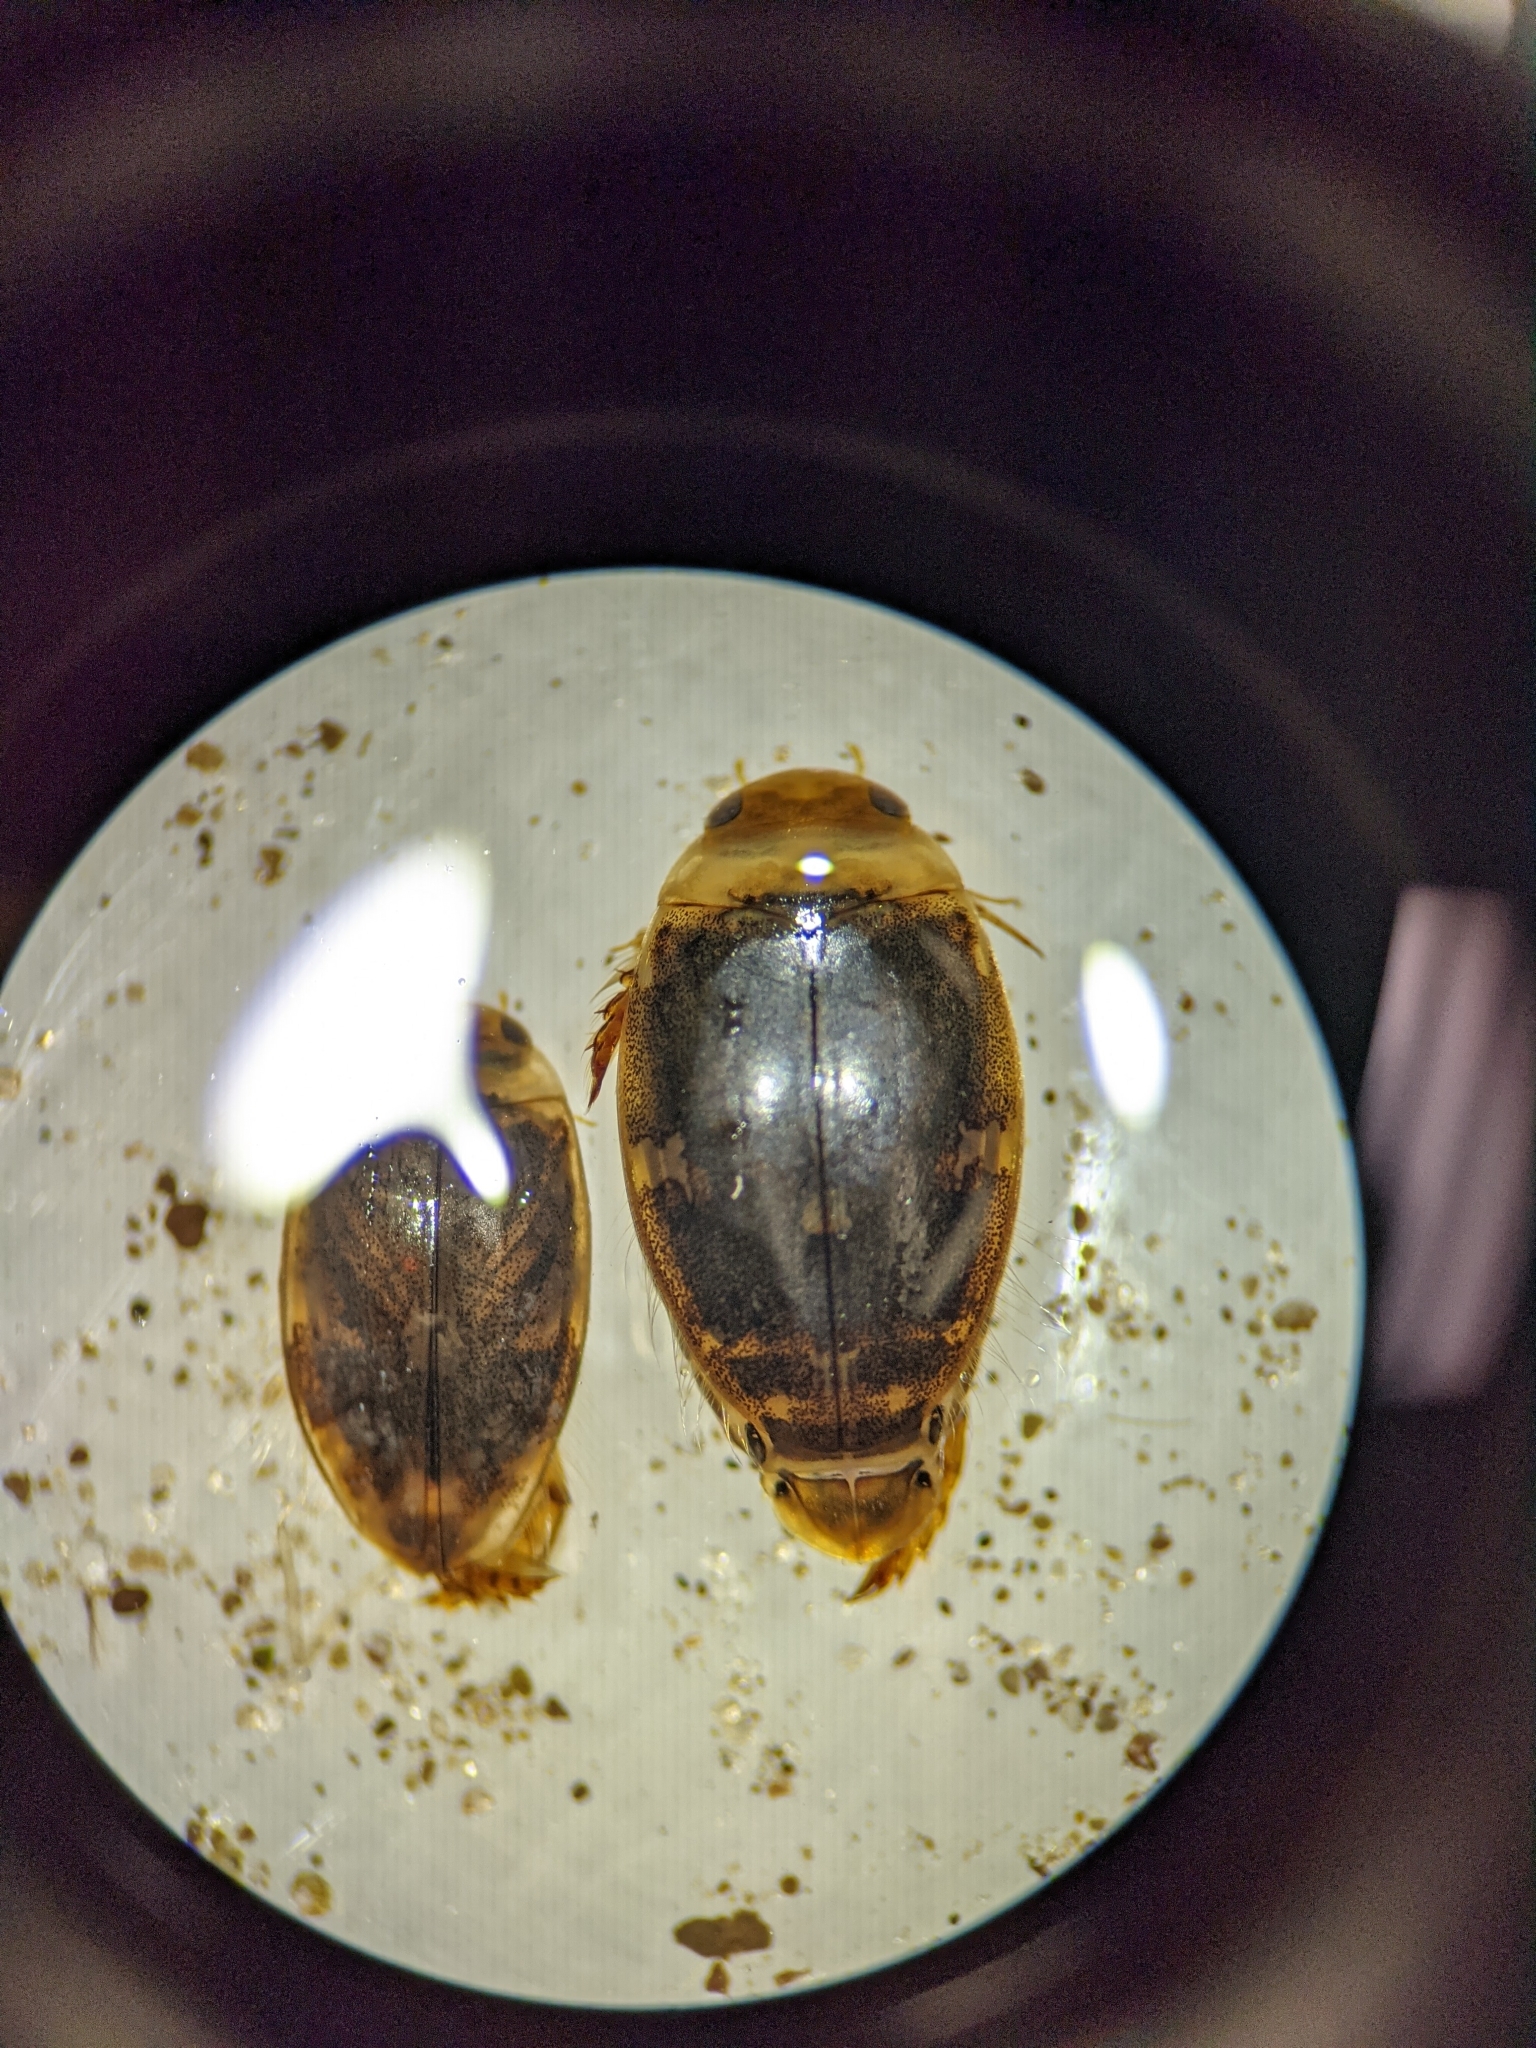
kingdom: Animalia
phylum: Arthropoda
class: Insecta
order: Coleoptera
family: Dytiscidae
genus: Laccophilus
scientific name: Laccophilus maculosus
